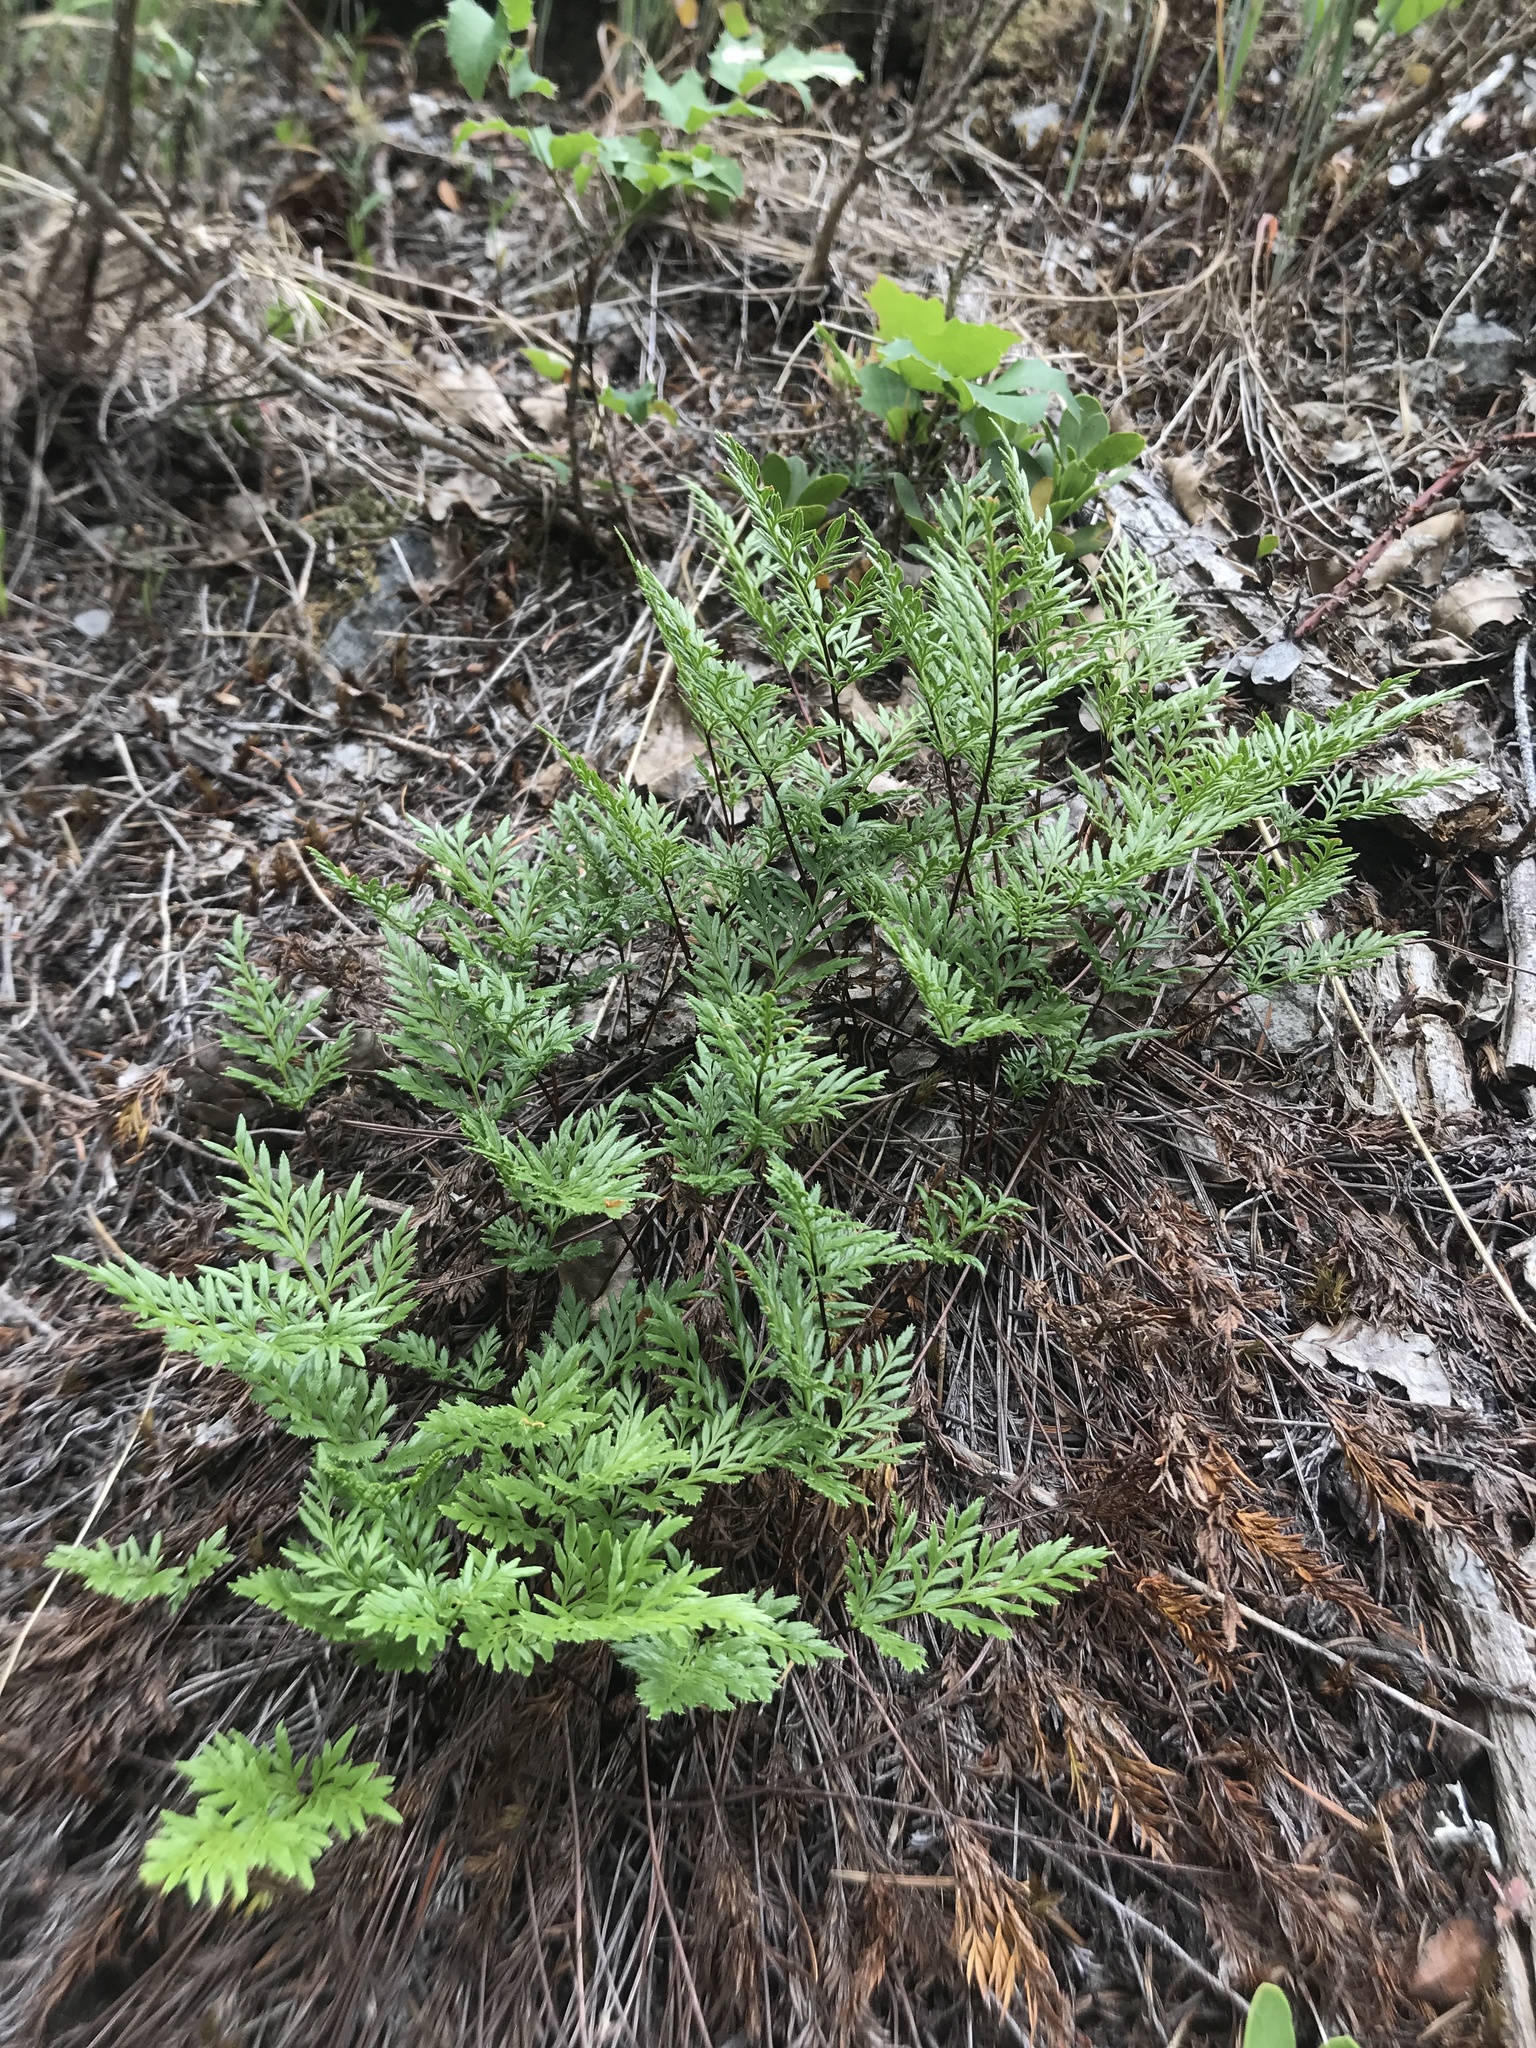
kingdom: Plantae
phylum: Tracheophyta
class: Polypodiopsida
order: Polypodiales
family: Pteridaceae
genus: Aspidotis
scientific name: Aspidotis densa
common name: Indian's dream
